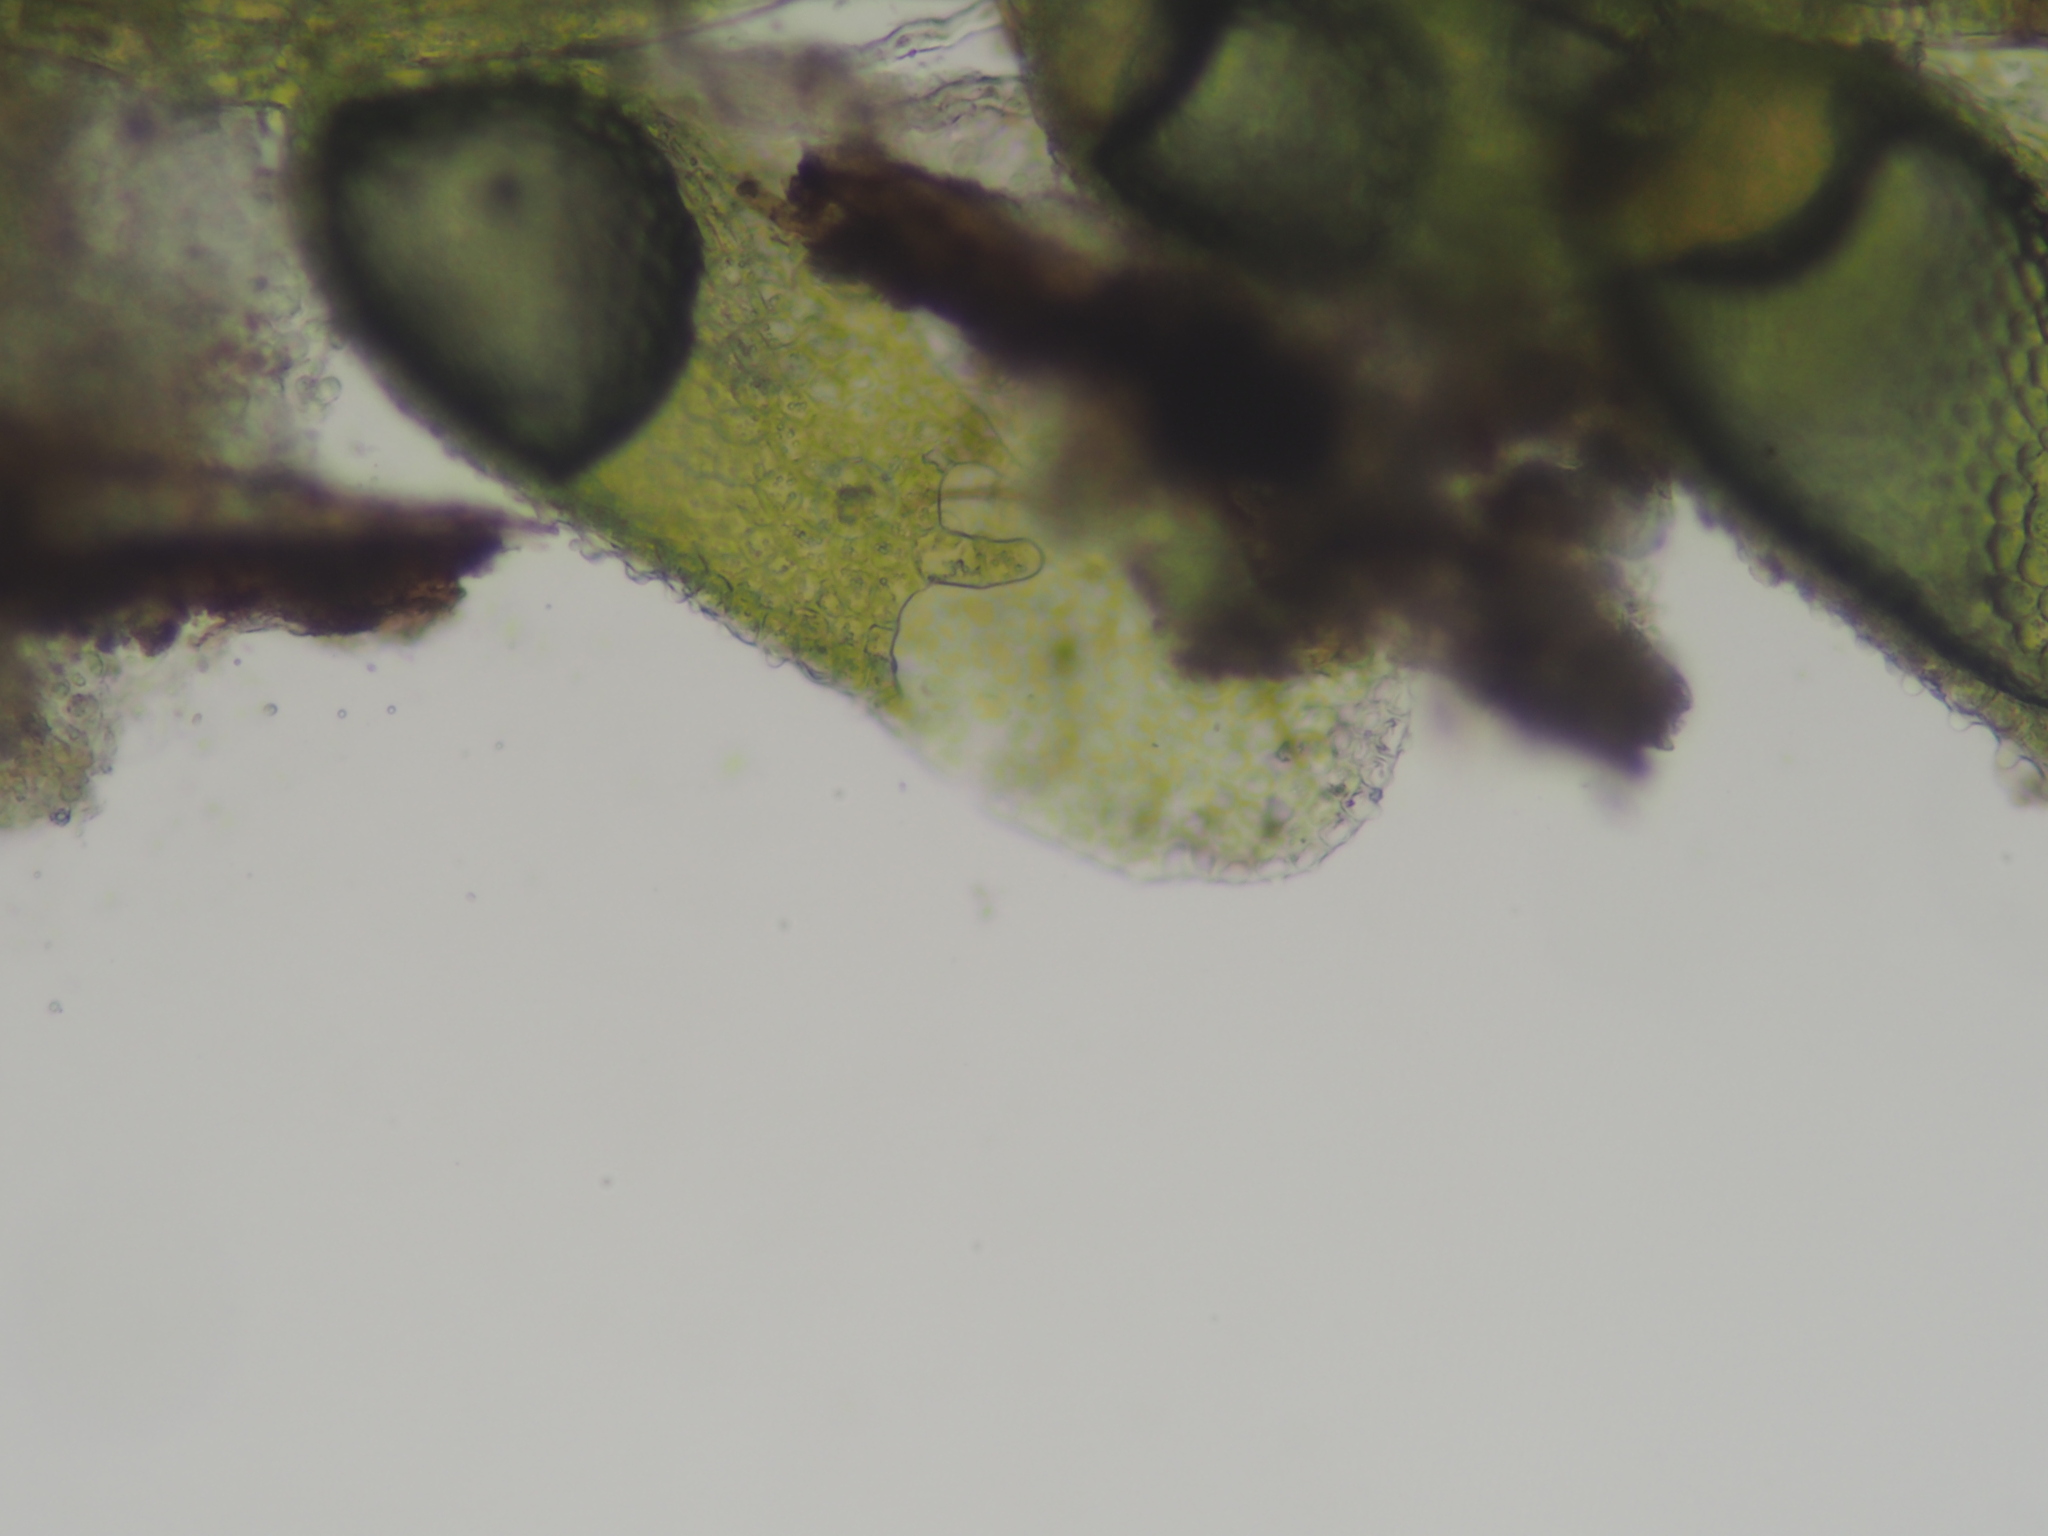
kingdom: Plantae
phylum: Marchantiophyta
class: Jungermanniopsida
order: Porellales
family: Lejeuneaceae
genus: Cololejeunea
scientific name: Cololejeunea macounii
